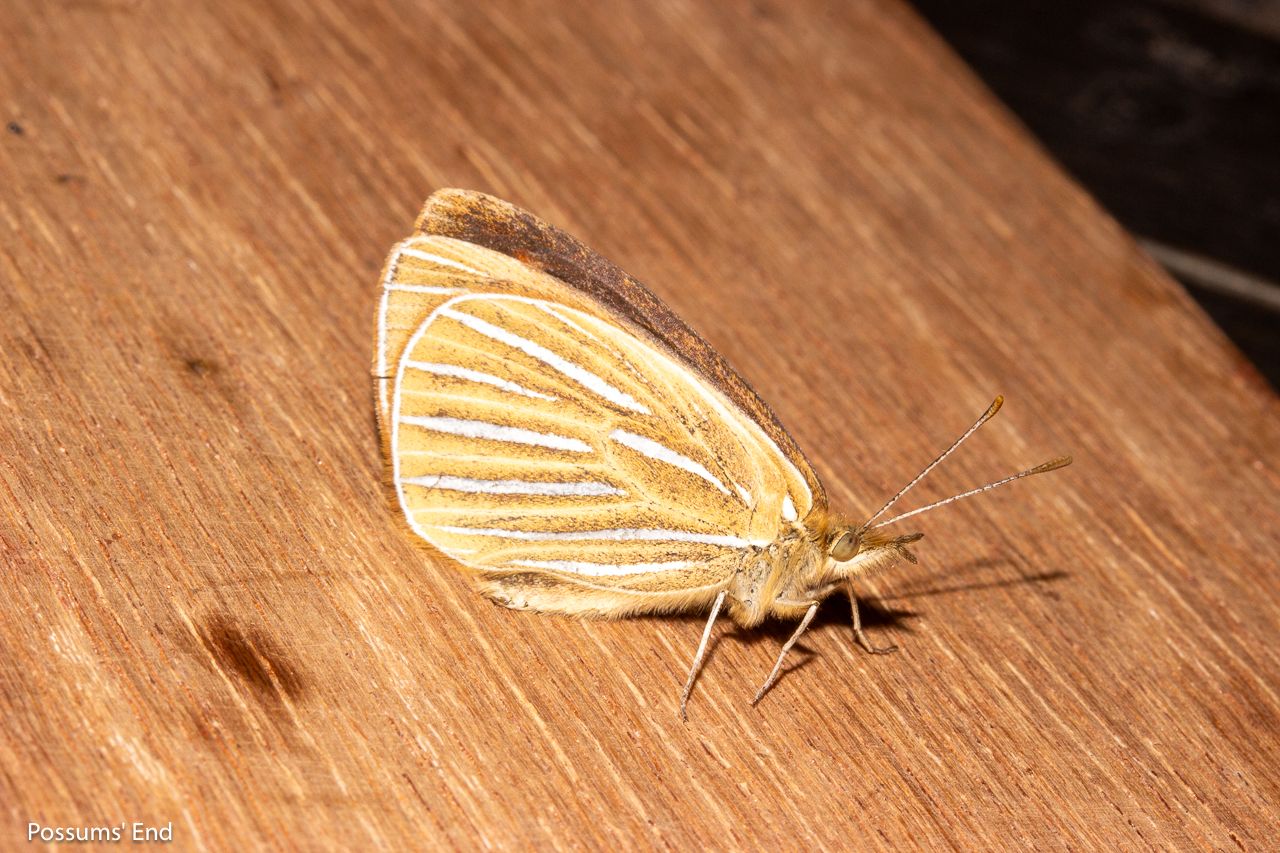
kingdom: Animalia
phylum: Arthropoda
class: Insecta
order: Lepidoptera
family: Nymphalidae
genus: Argyrophenga
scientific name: Argyrophenga antipodum
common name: Common tussock butterfly
